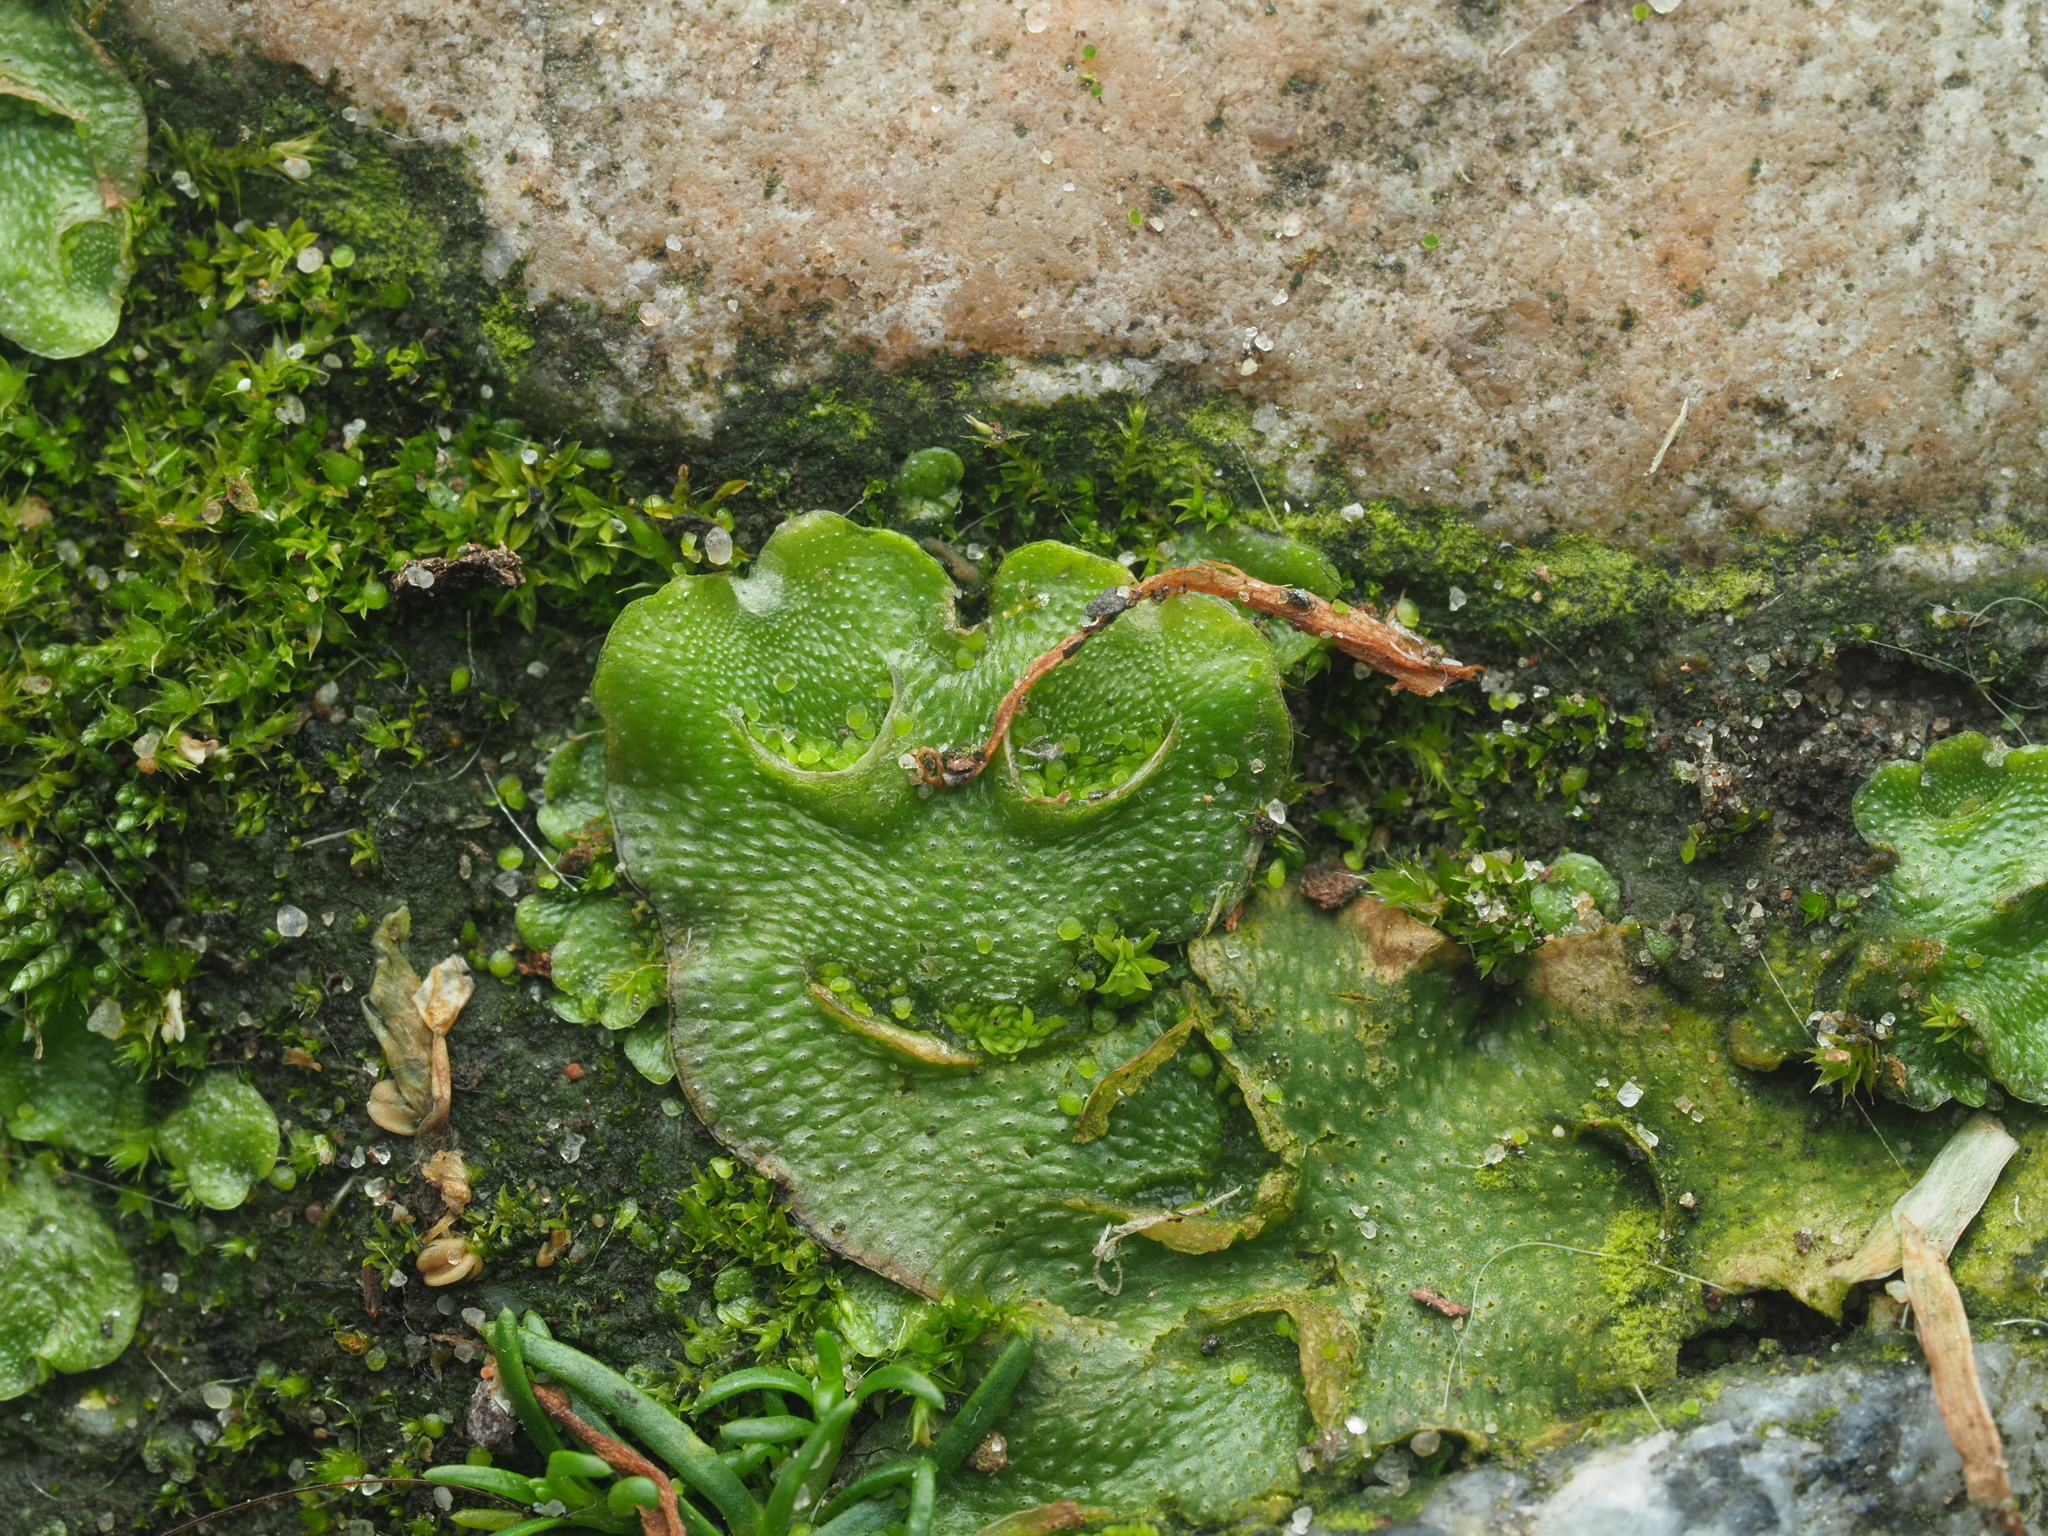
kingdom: Plantae
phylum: Marchantiophyta
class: Marchantiopsida
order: Lunulariales
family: Lunulariaceae
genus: Lunularia
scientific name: Lunularia cruciata
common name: Crescent-cup liverwort
